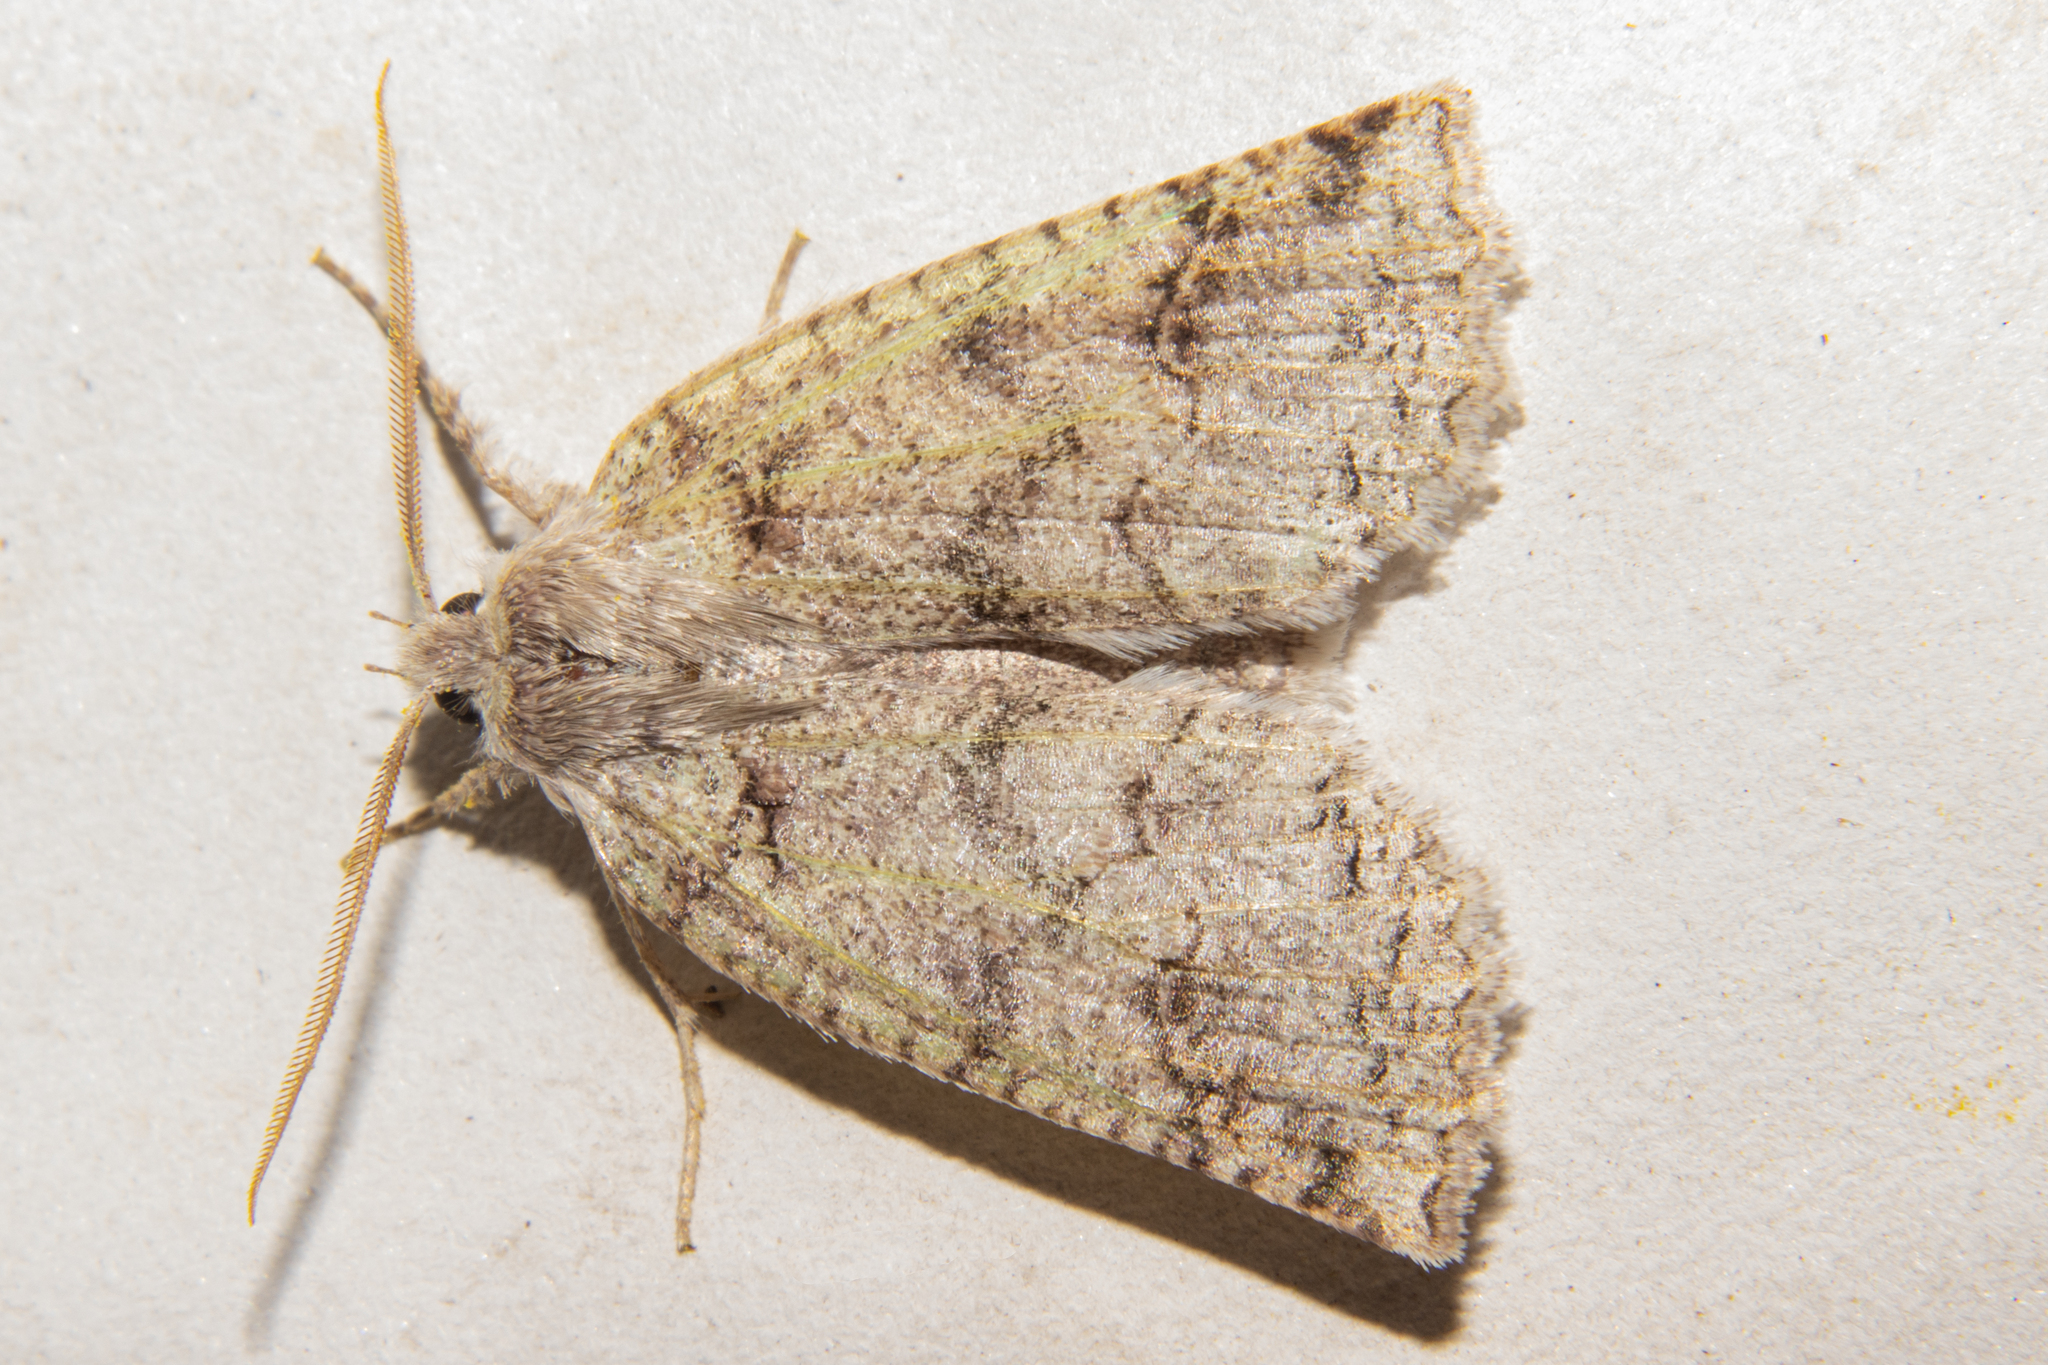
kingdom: Animalia
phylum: Arthropoda
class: Insecta
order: Lepidoptera
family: Geometridae
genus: Declana
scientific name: Declana floccosa
